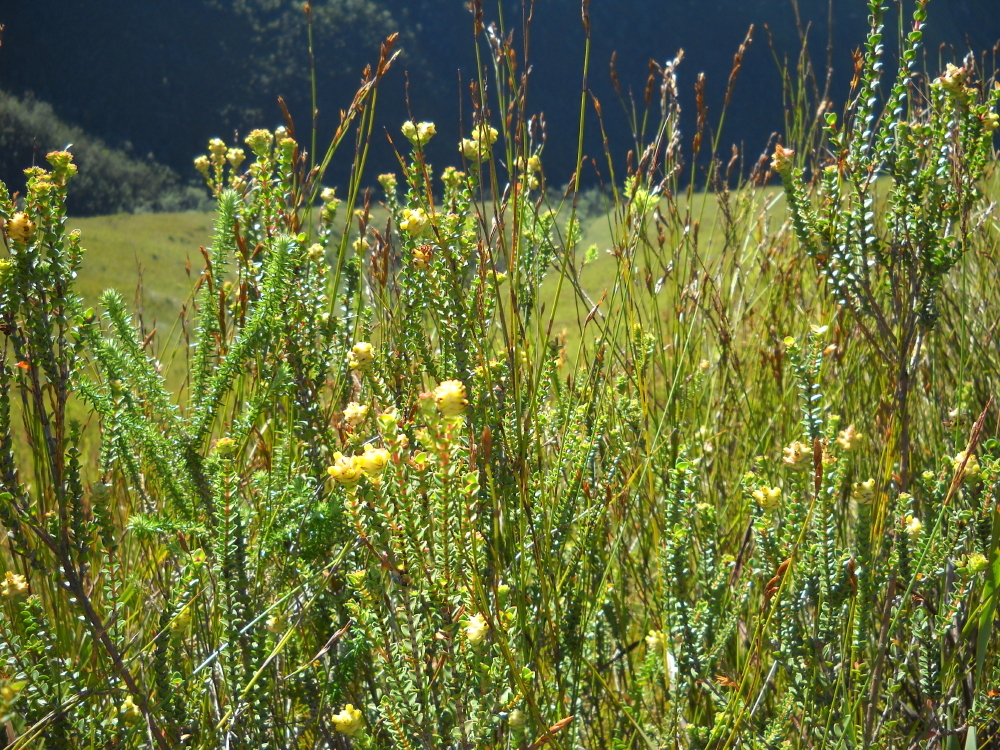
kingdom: Plantae
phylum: Tracheophyta
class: Magnoliopsida
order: Myrtales
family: Penaeaceae
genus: Penaea
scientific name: Penaea cneorum
